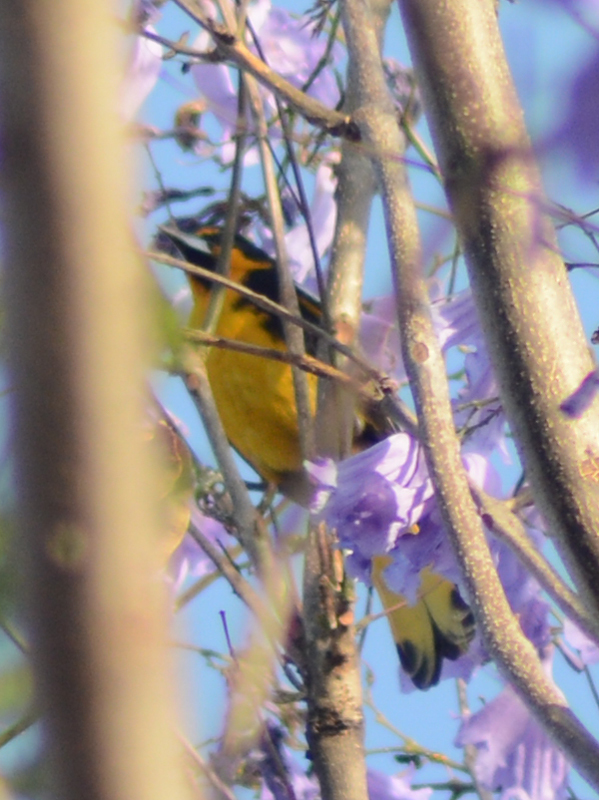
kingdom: Animalia
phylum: Chordata
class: Aves
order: Passeriformes
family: Icteridae
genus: Icterus
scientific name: Icterus abeillei
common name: Black-backed oriole
